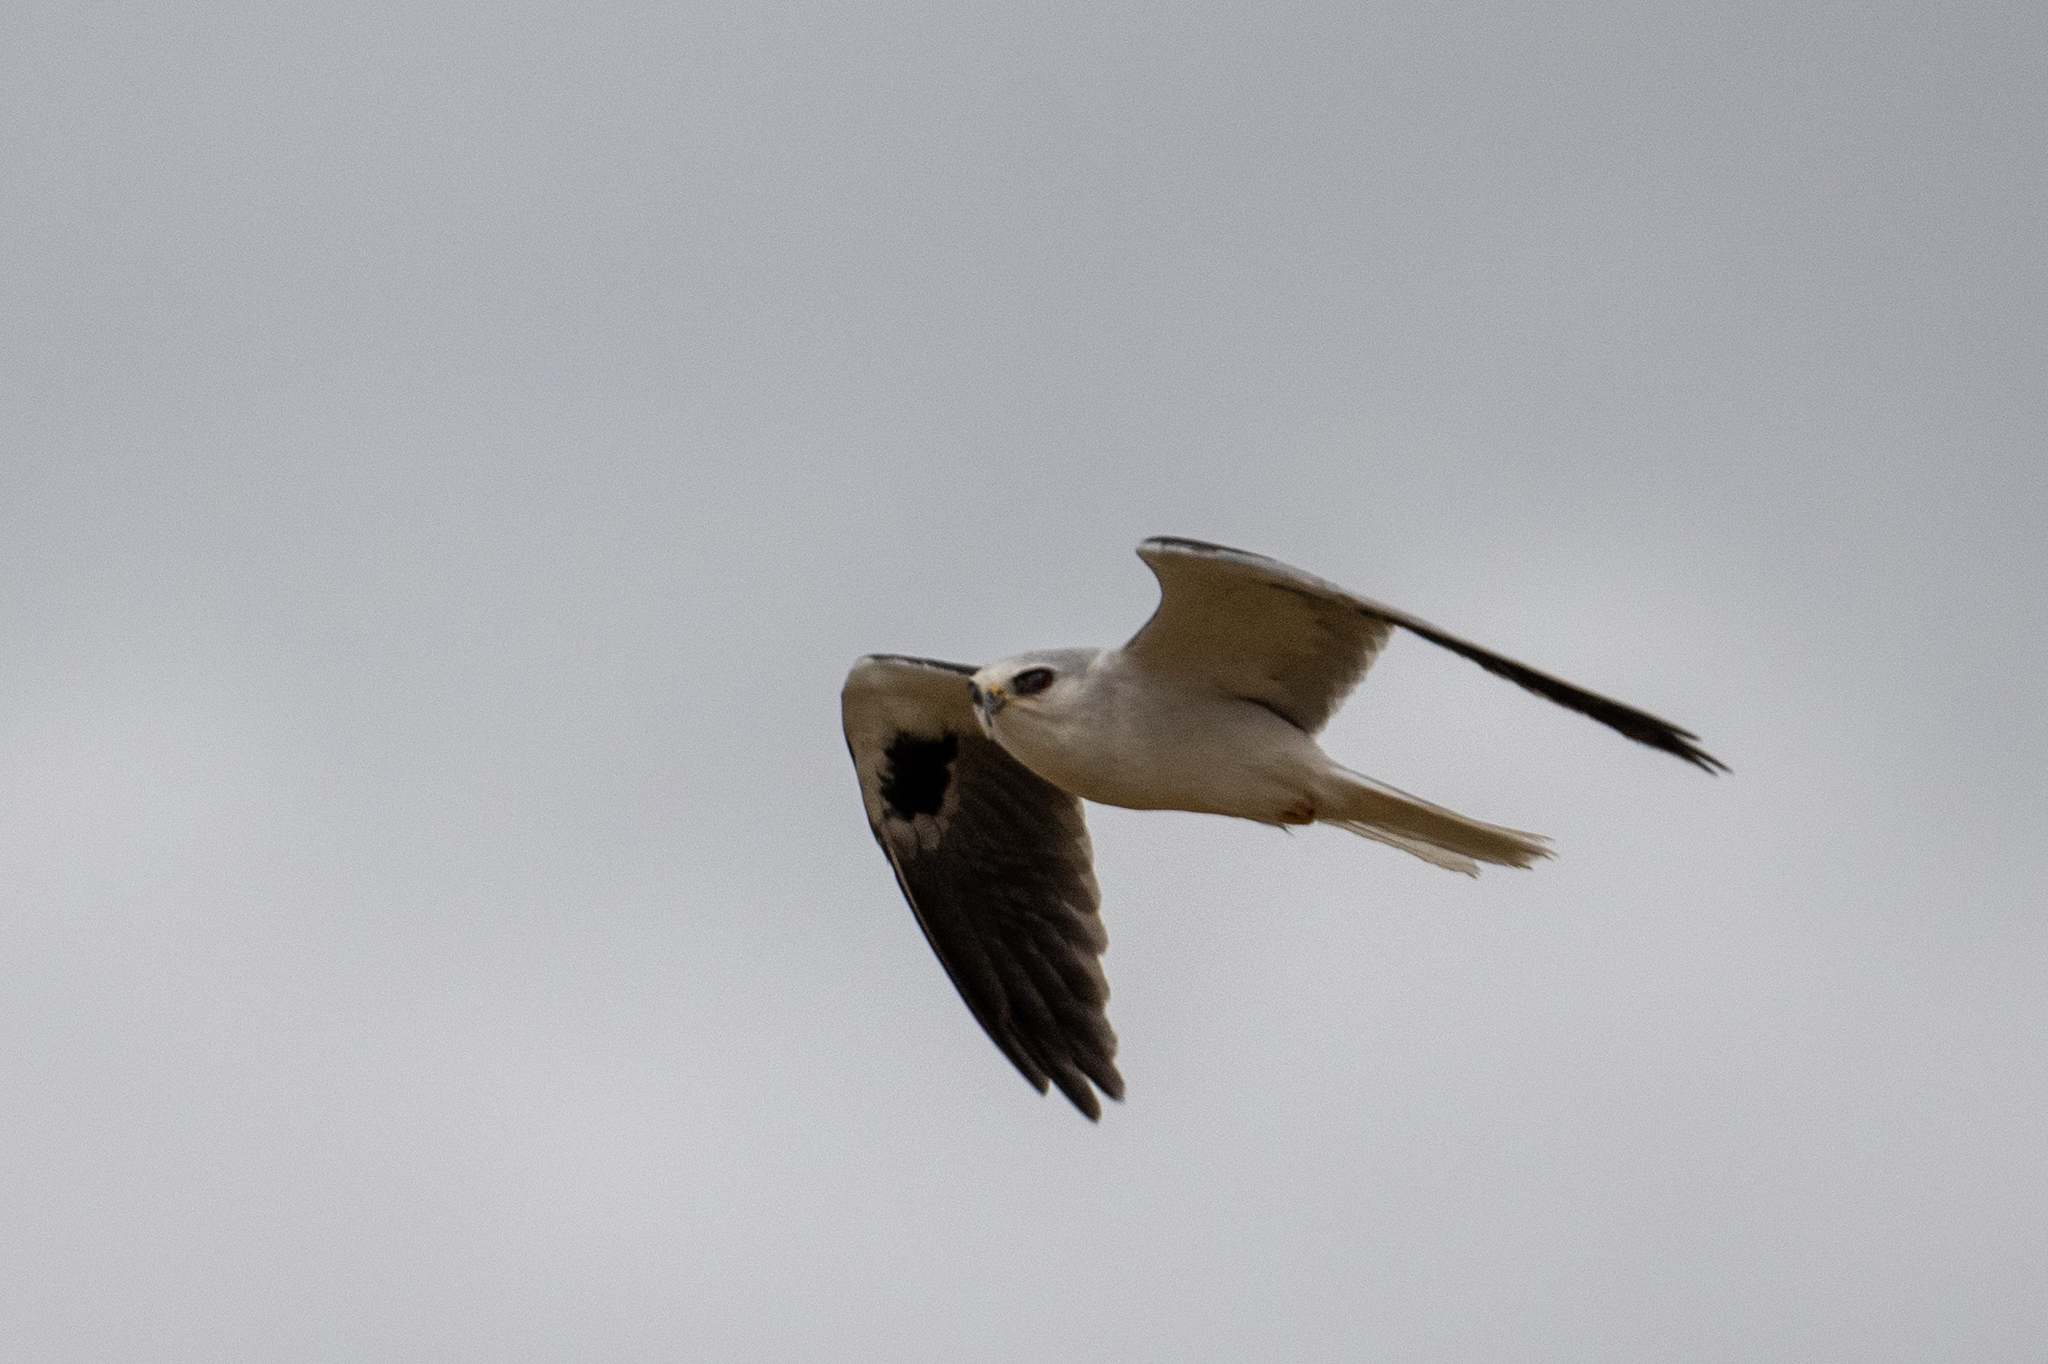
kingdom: Animalia
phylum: Chordata
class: Aves
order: Accipitriformes
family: Accipitridae
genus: Elanus
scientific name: Elanus leucurus
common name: White-tailed kite
